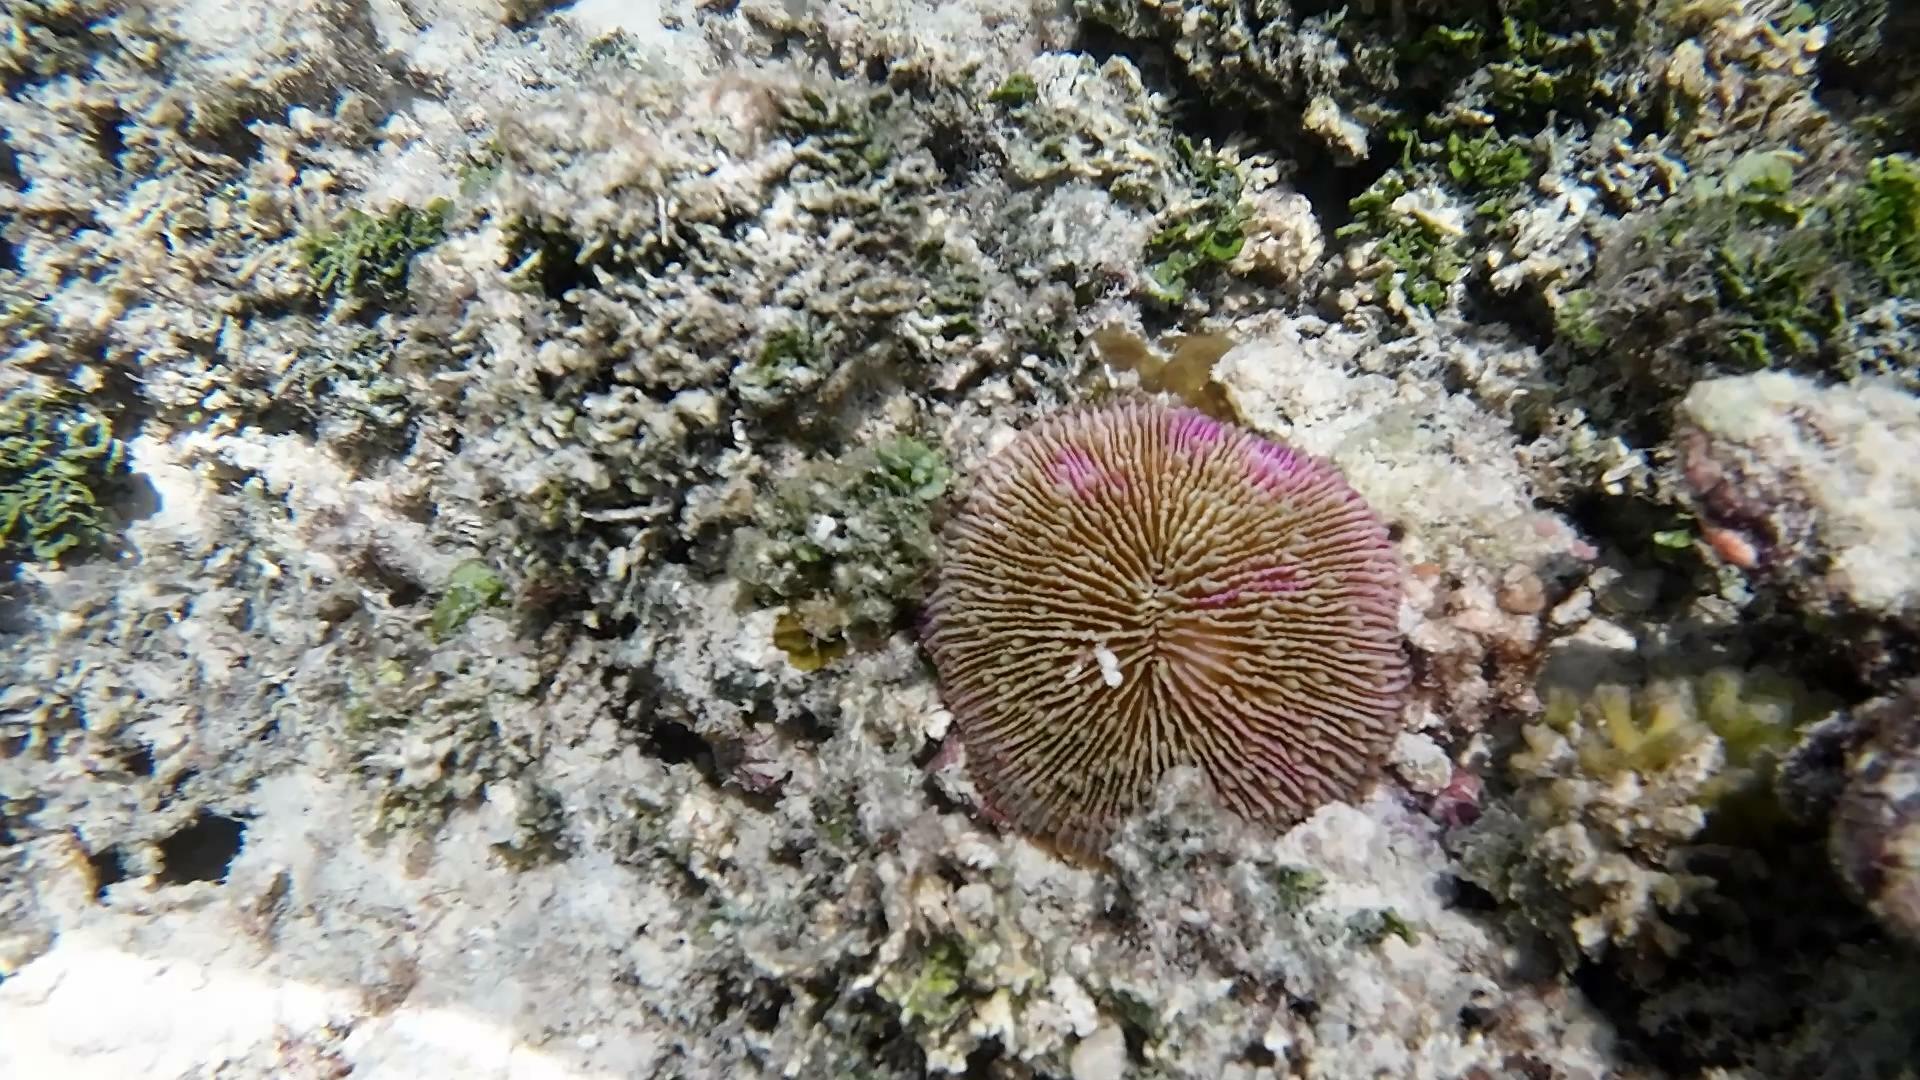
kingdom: Animalia
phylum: Cnidaria
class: Anthozoa
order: Scleractinia
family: Fungiidae
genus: Fungia
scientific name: Fungia fungites
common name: Mushroom coral
